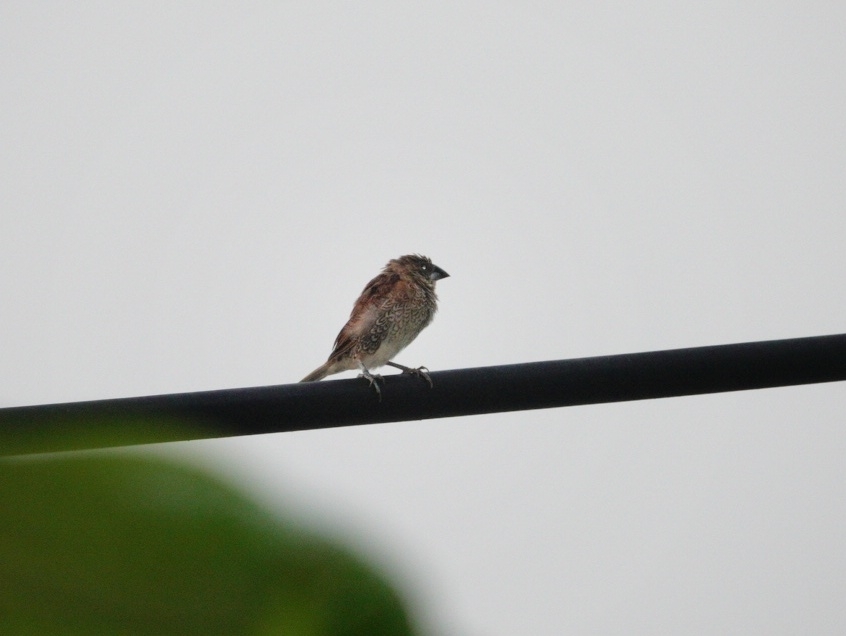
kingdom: Animalia
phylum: Chordata
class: Aves
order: Passeriformes
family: Estrildidae
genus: Lonchura
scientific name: Lonchura punctulata
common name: Scaly-breasted munia
